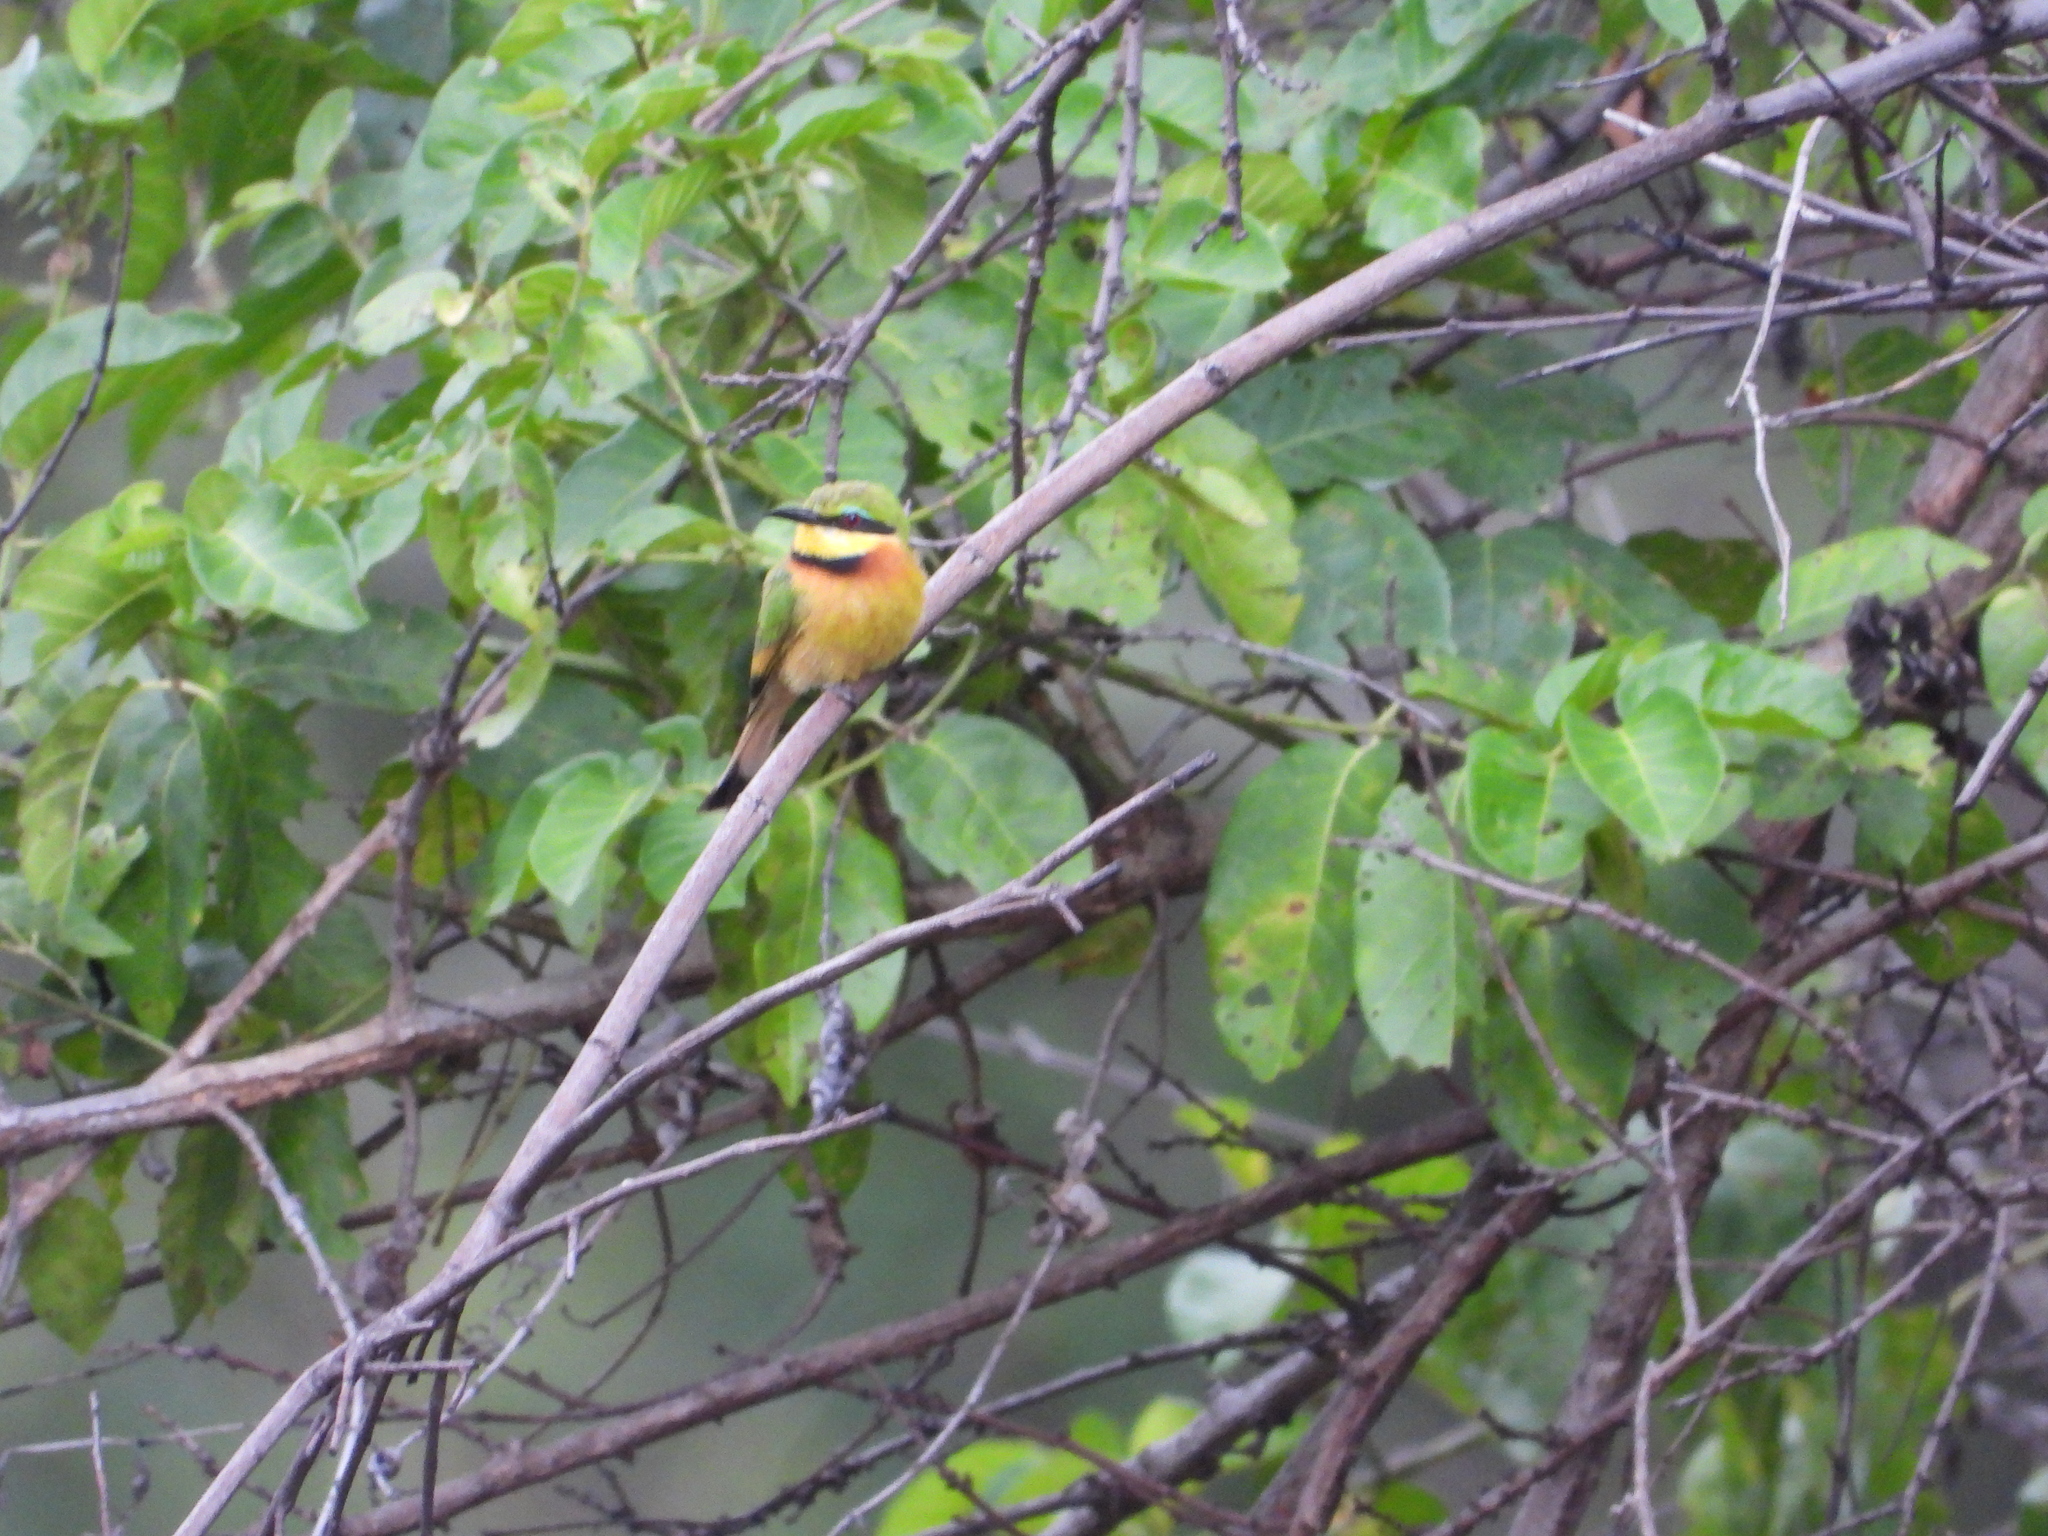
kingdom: Animalia
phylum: Chordata
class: Aves
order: Coraciiformes
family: Meropidae
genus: Merops
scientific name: Merops pusillus
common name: Little bee-eater
